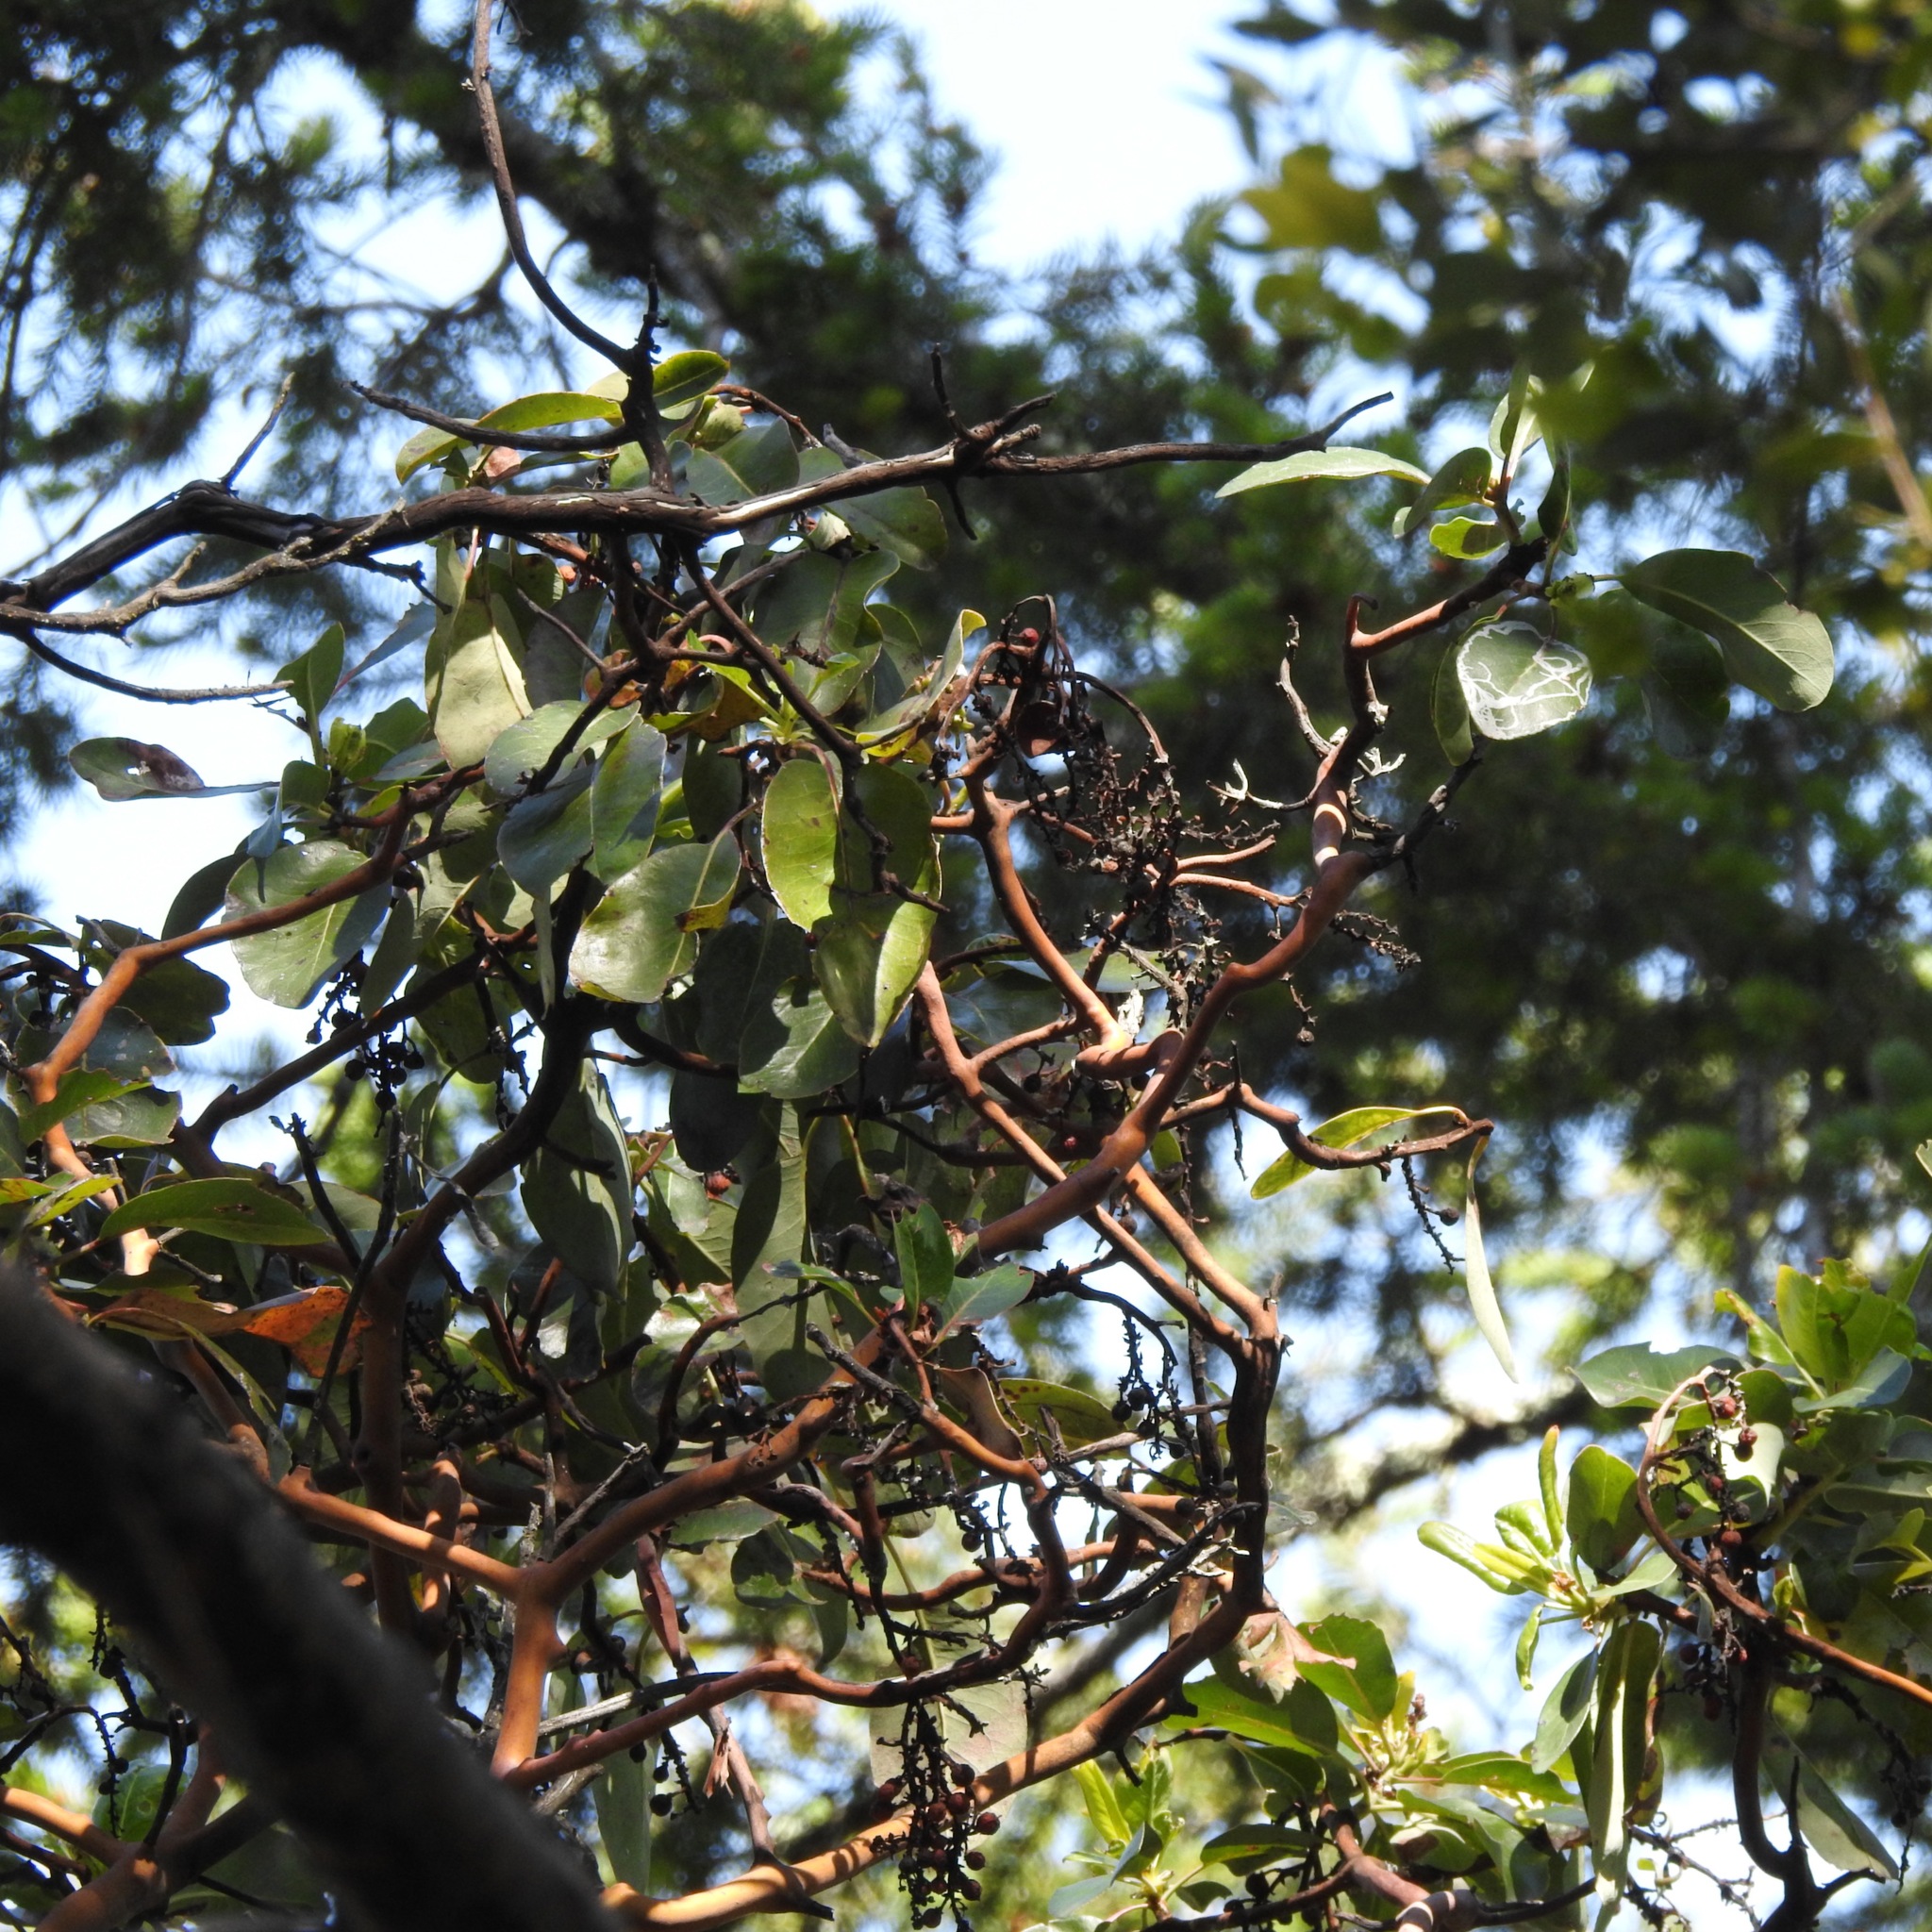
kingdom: Plantae
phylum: Tracheophyta
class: Magnoliopsida
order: Ericales
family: Ericaceae
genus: Arbutus
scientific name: Arbutus menziesii
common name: Pacific madrone
